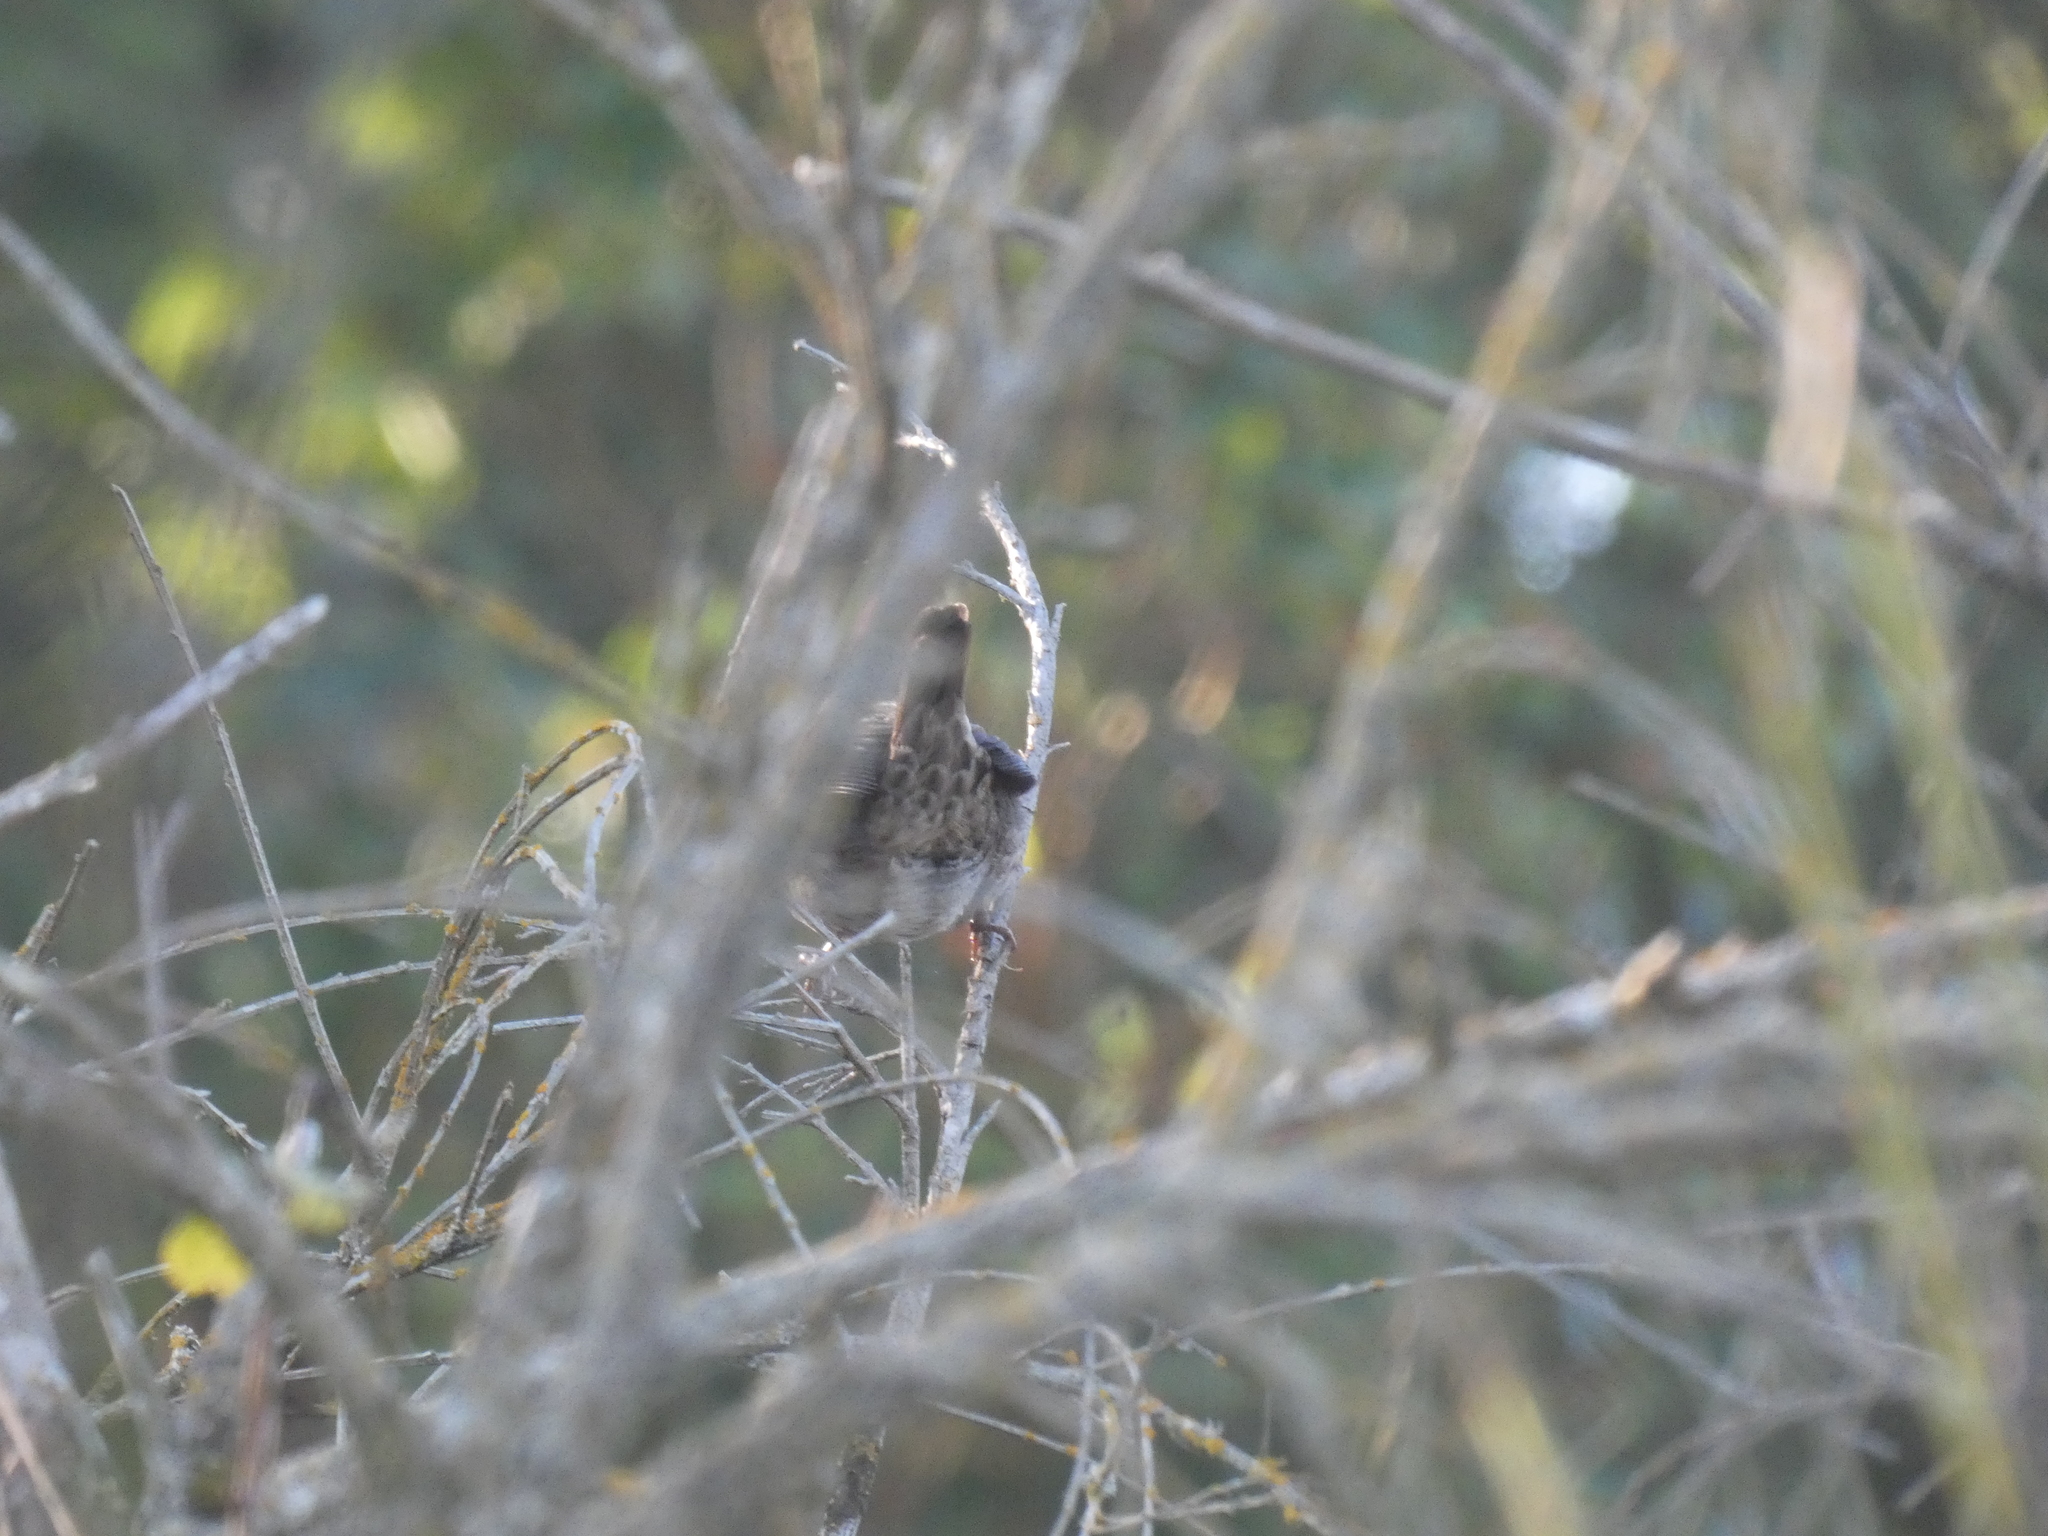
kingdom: Animalia
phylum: Chordata
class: Aves
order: Passeriformes
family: Passerellidae
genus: Melospiza
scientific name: Melospiza melodia
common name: Song sparrow
